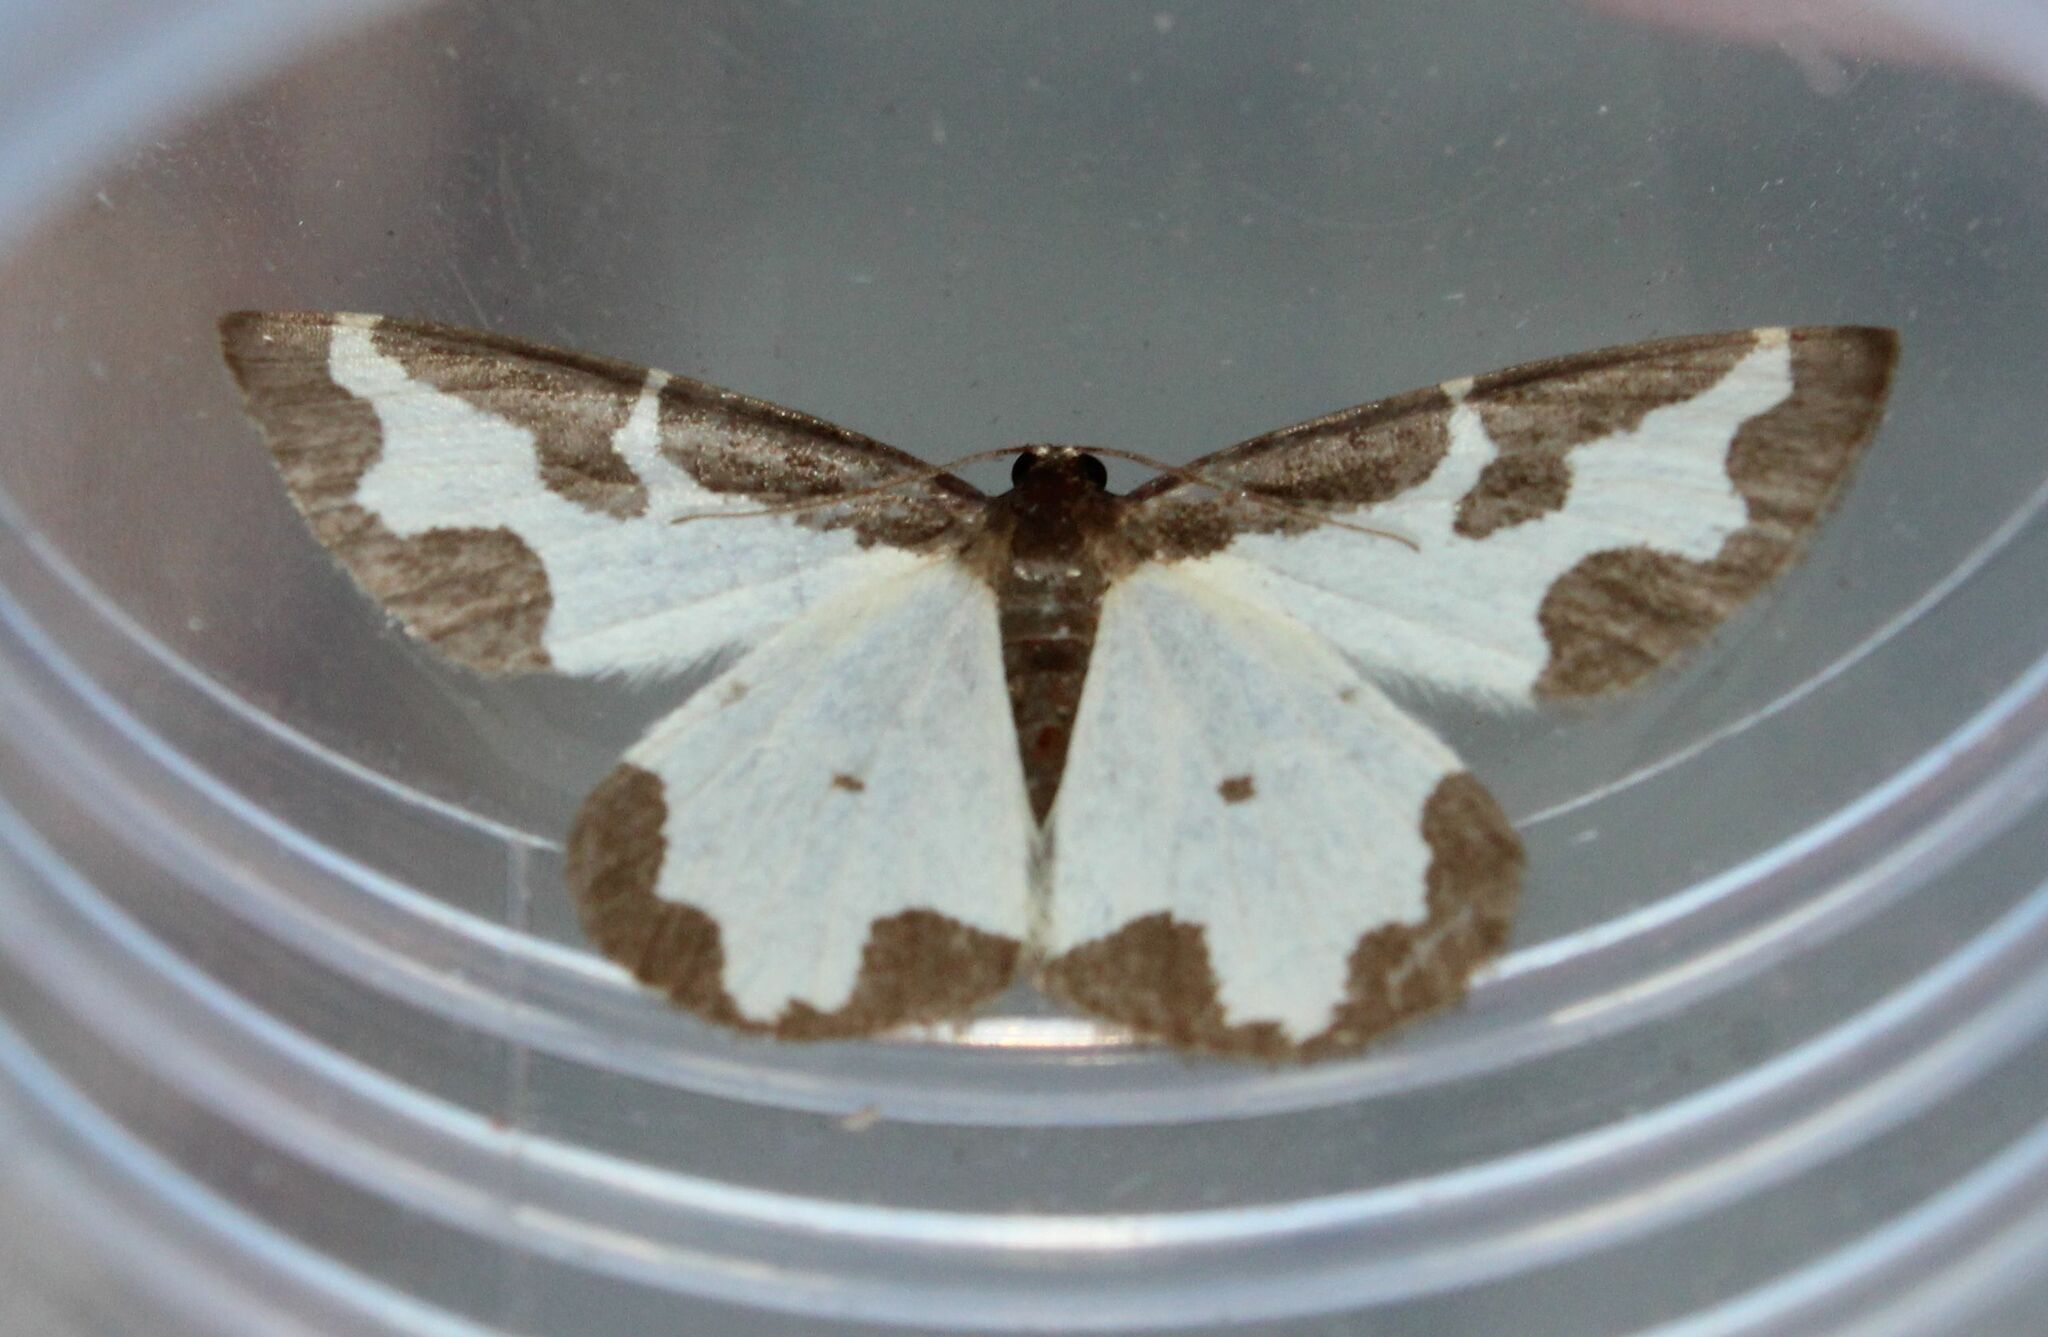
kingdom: Animalia
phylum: Arthropoda
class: Insecta
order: Lepidoptera
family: Geometridae
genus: Lomaspilis
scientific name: Lomaspilis marginata
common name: Clouded border
